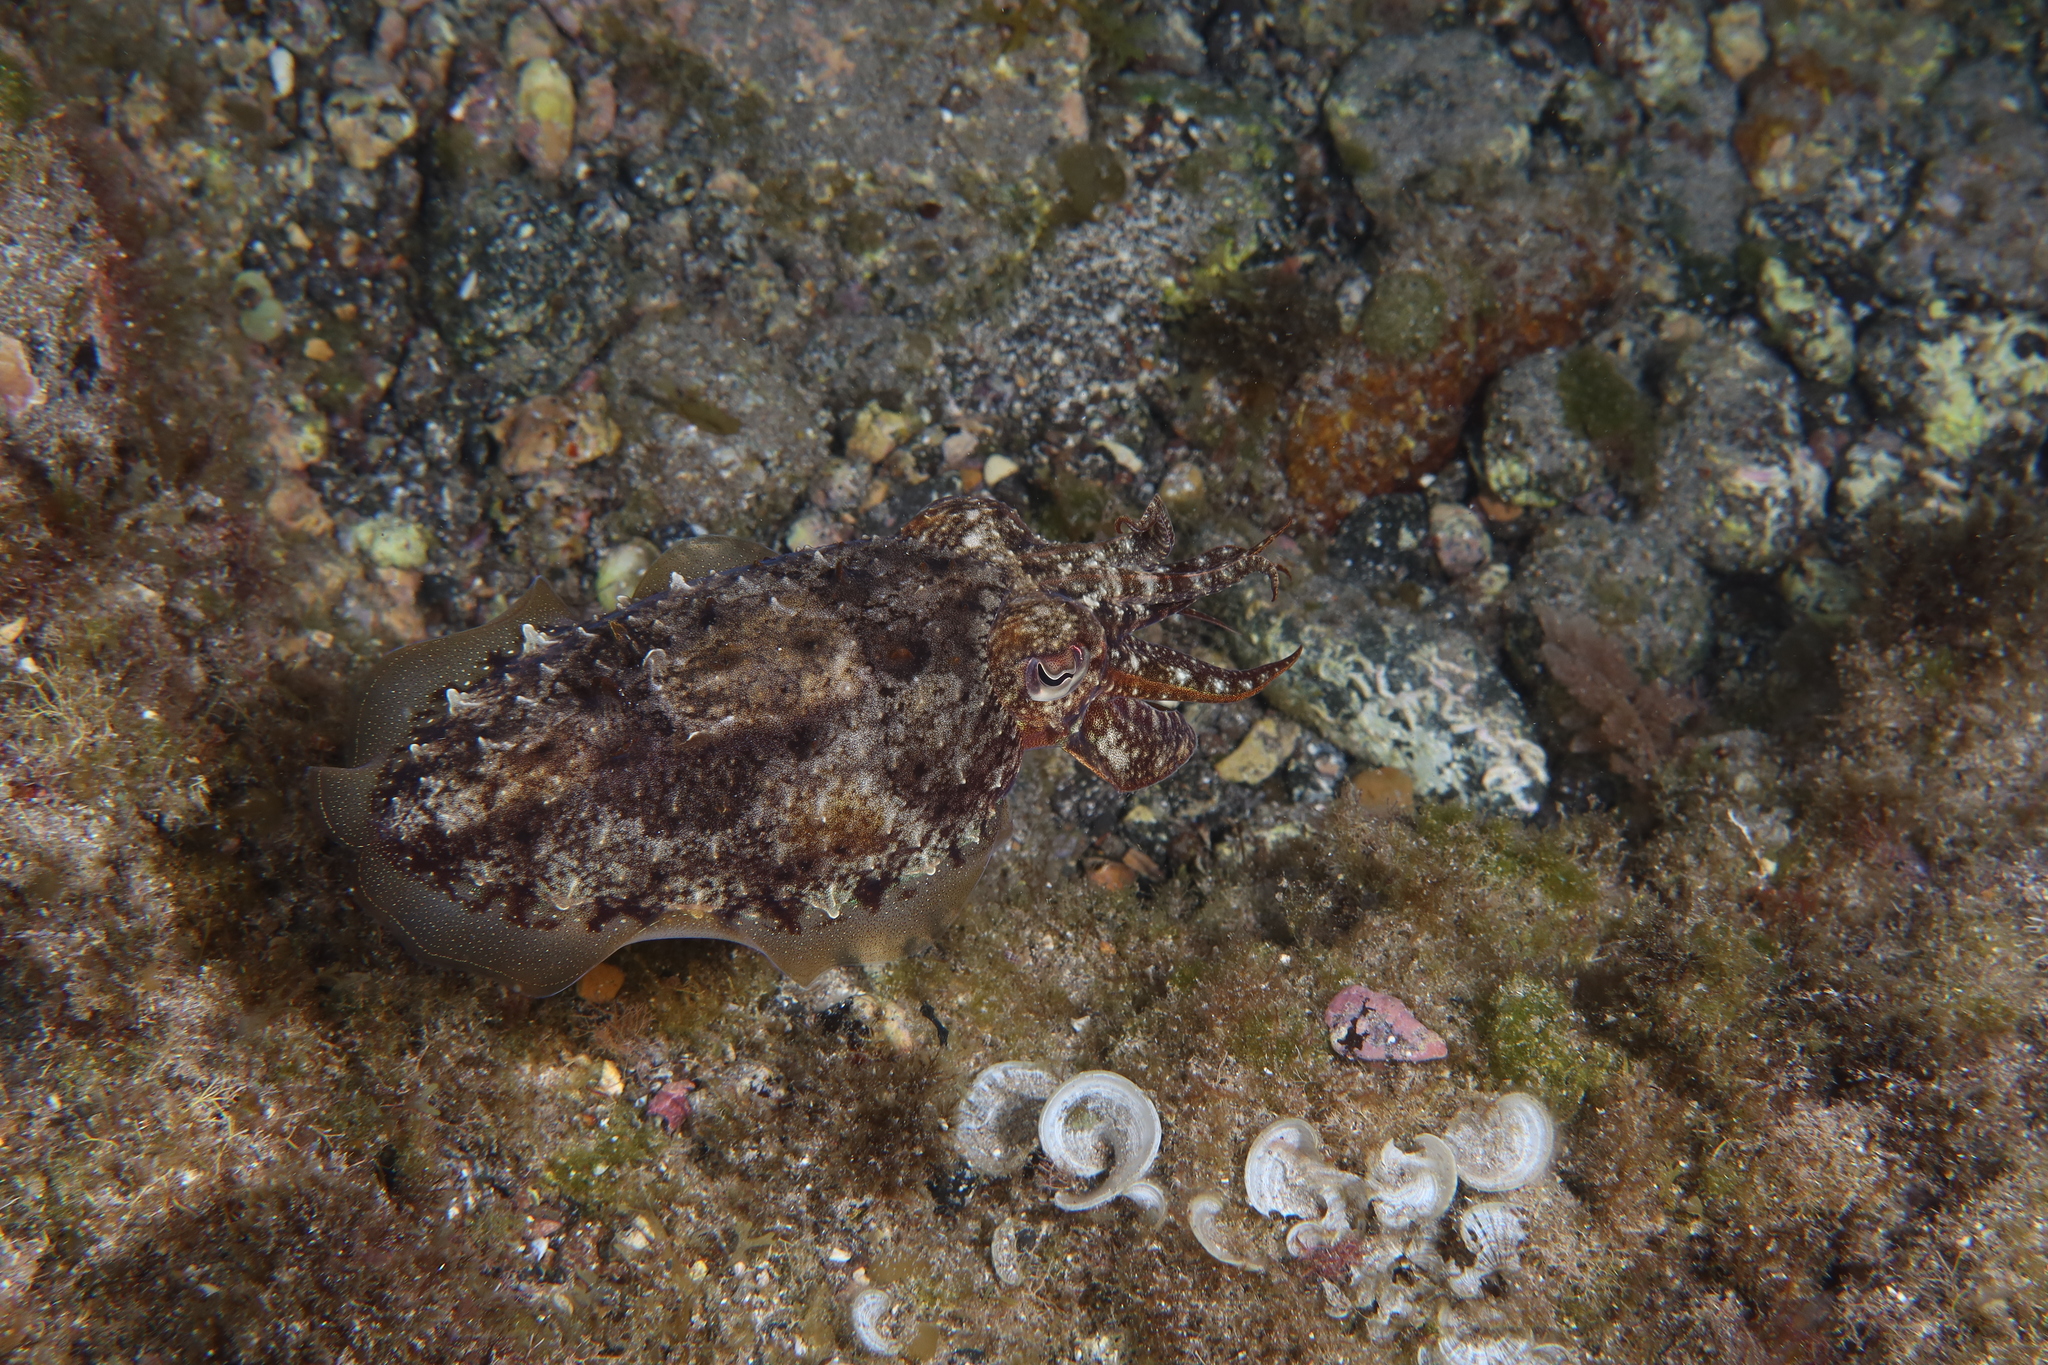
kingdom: Animalia
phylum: Mollusca
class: Cephalopoda
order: Sepiida
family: Sepiidae
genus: Sepia
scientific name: Sepia officinalis
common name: Common cuttlefish
